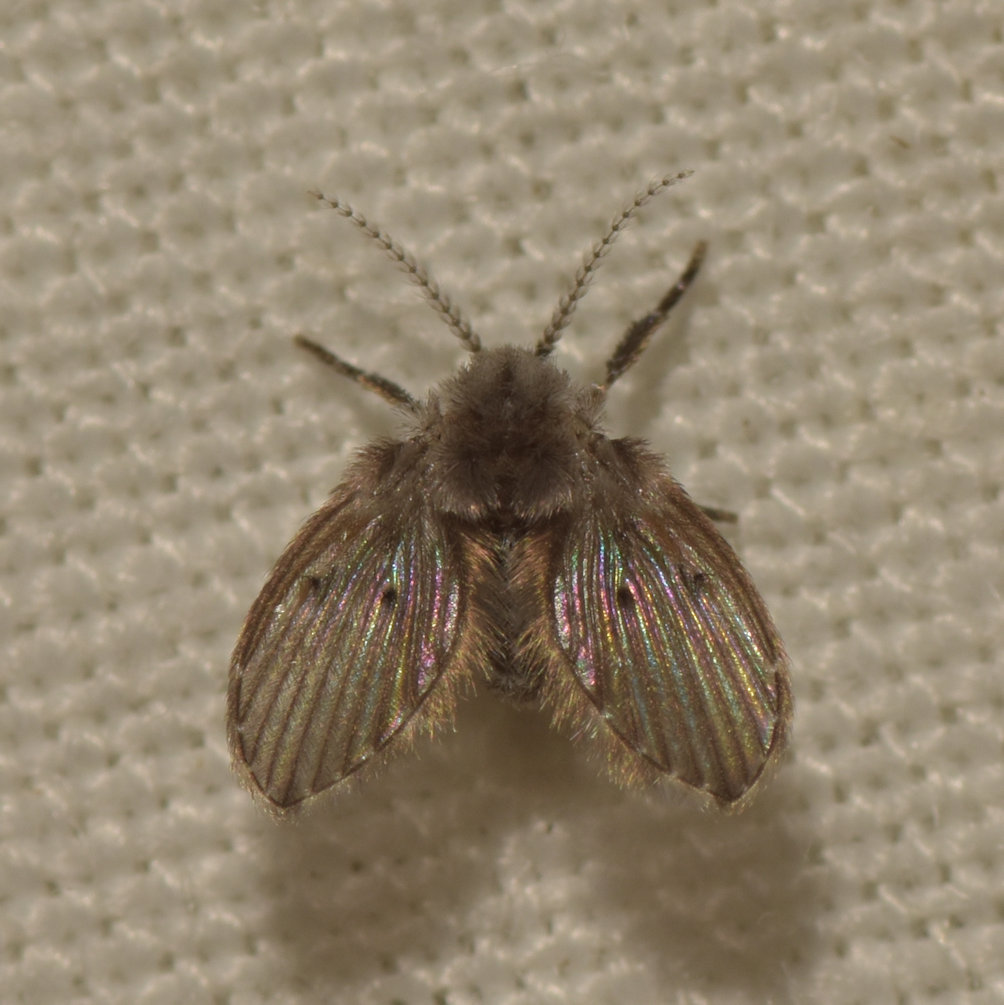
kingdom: Animalia
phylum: Arthropoda
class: Insecta
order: Diptera
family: Psychodidae
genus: Clogmia
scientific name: Clogmia albipunctatus
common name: White-spotted moth fly
